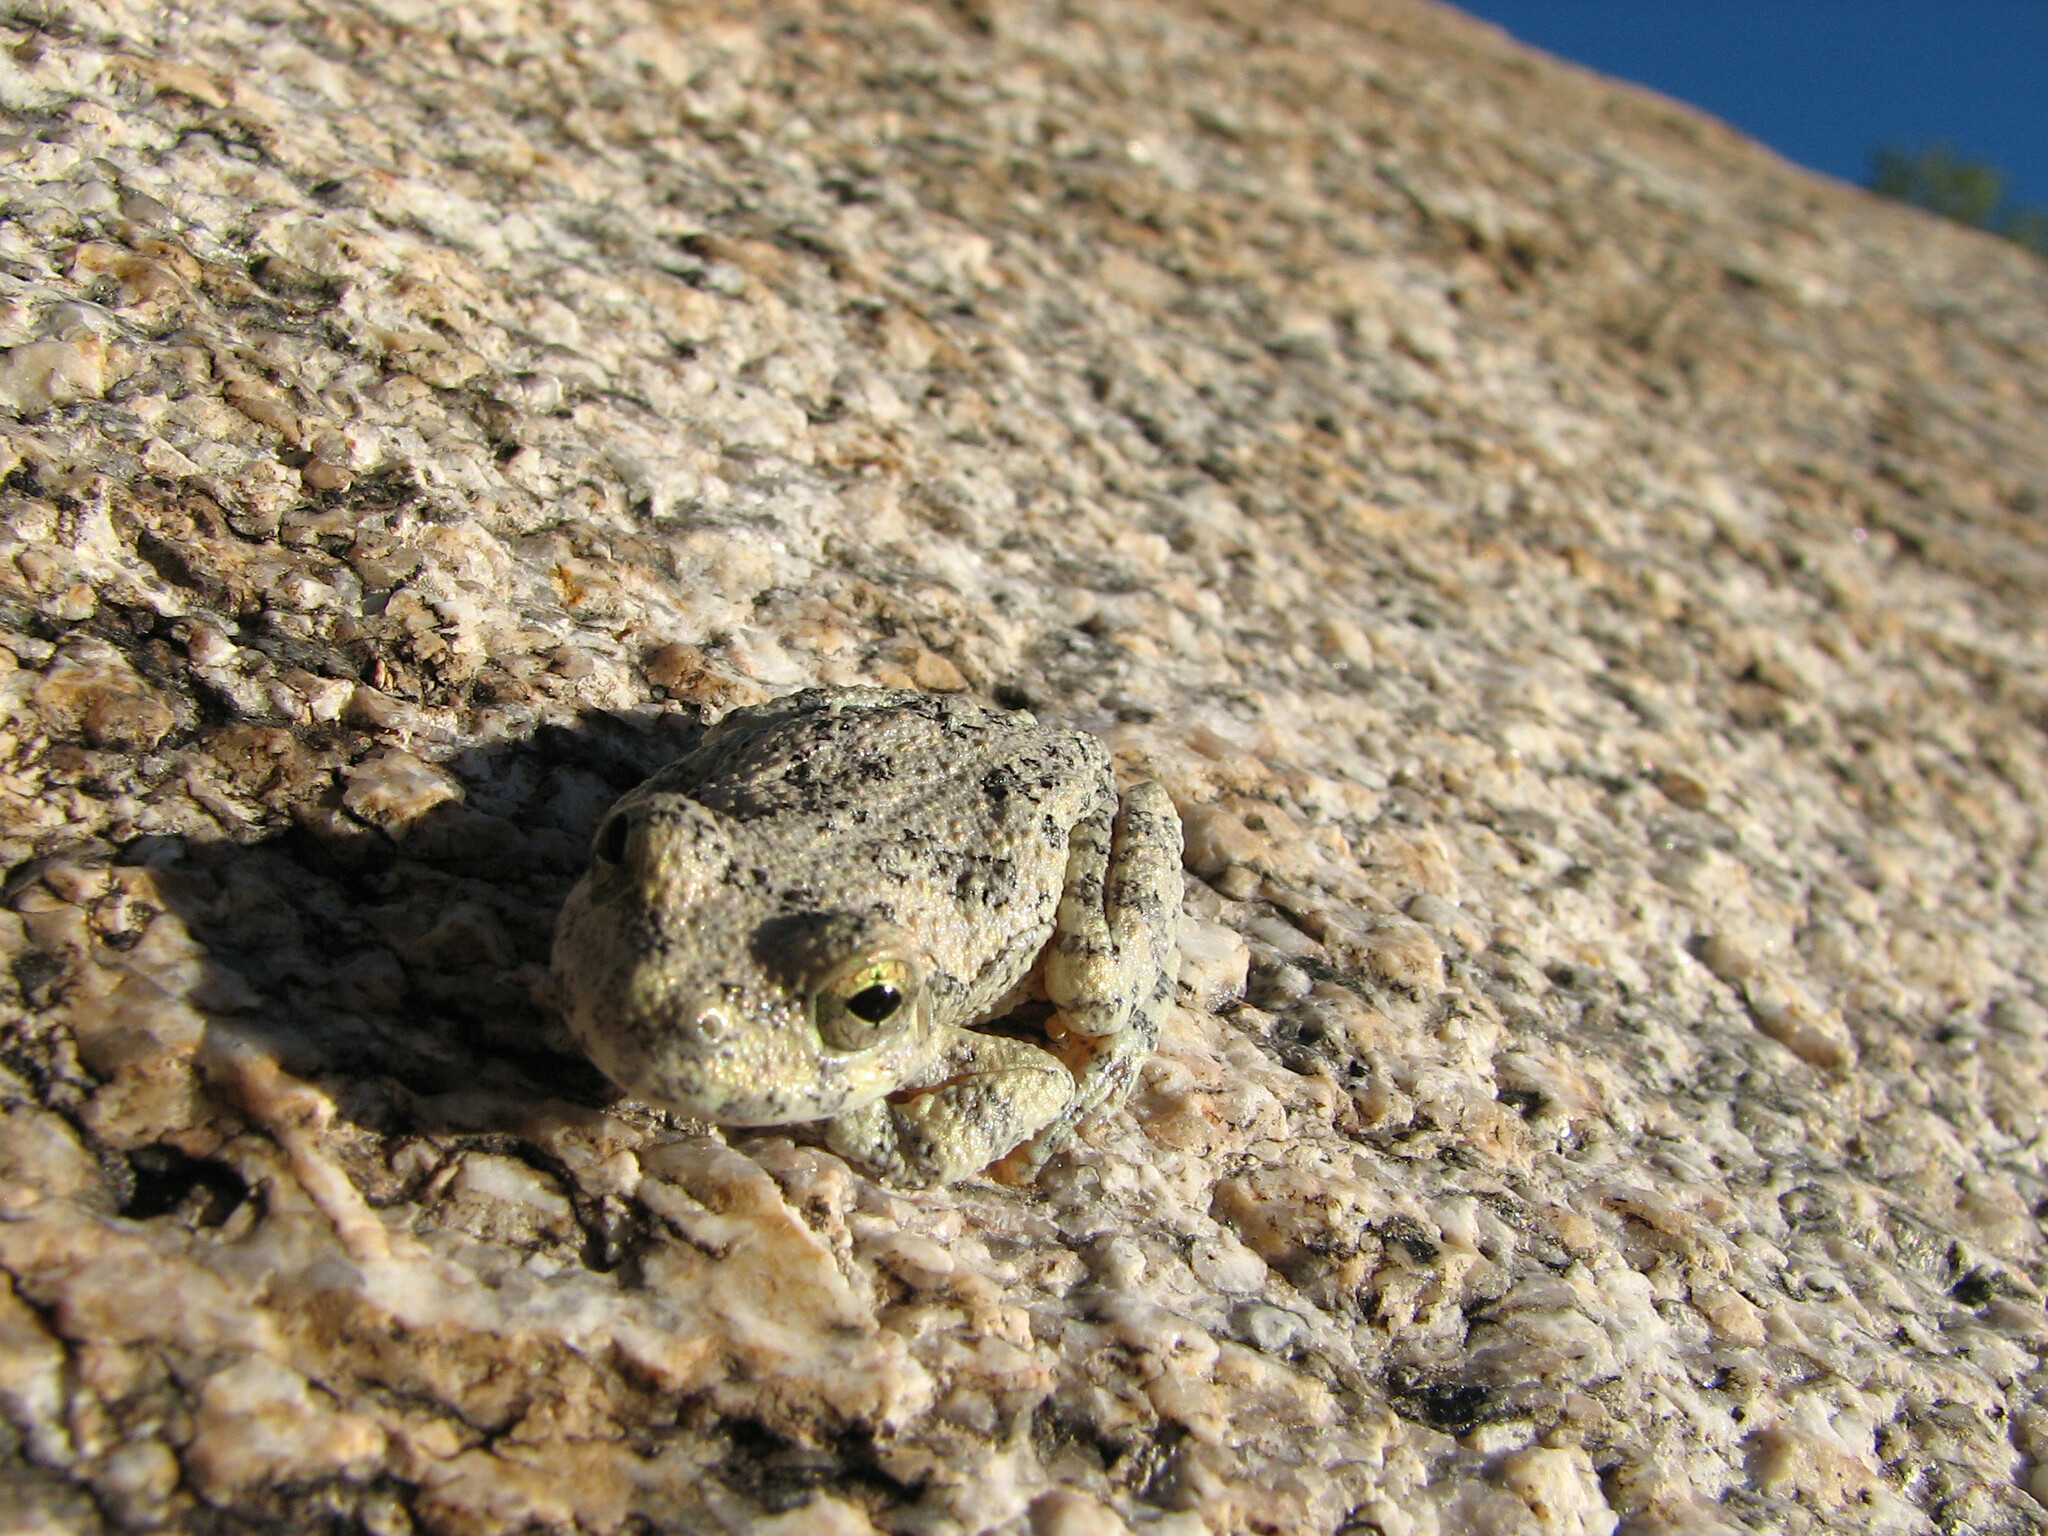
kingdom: Animalia
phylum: Chordata
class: Amphibia
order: Anura
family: Hylidae
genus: Dryophytes
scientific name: Dryophytes arenicolor
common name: Canyon treefrog
